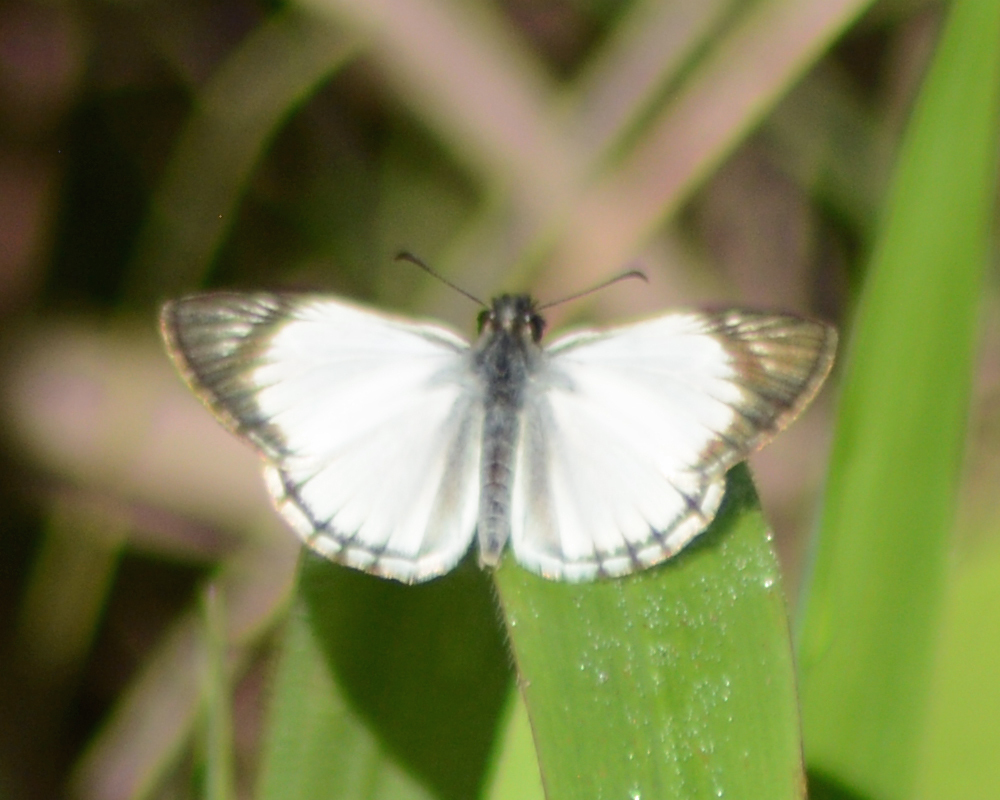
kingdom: Animalia
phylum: Arthropoda
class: Insecta
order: Lepidoptera
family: Hesperiidae
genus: Heliopetes
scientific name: Heliopetes arsalte
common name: Veined white-skipper
